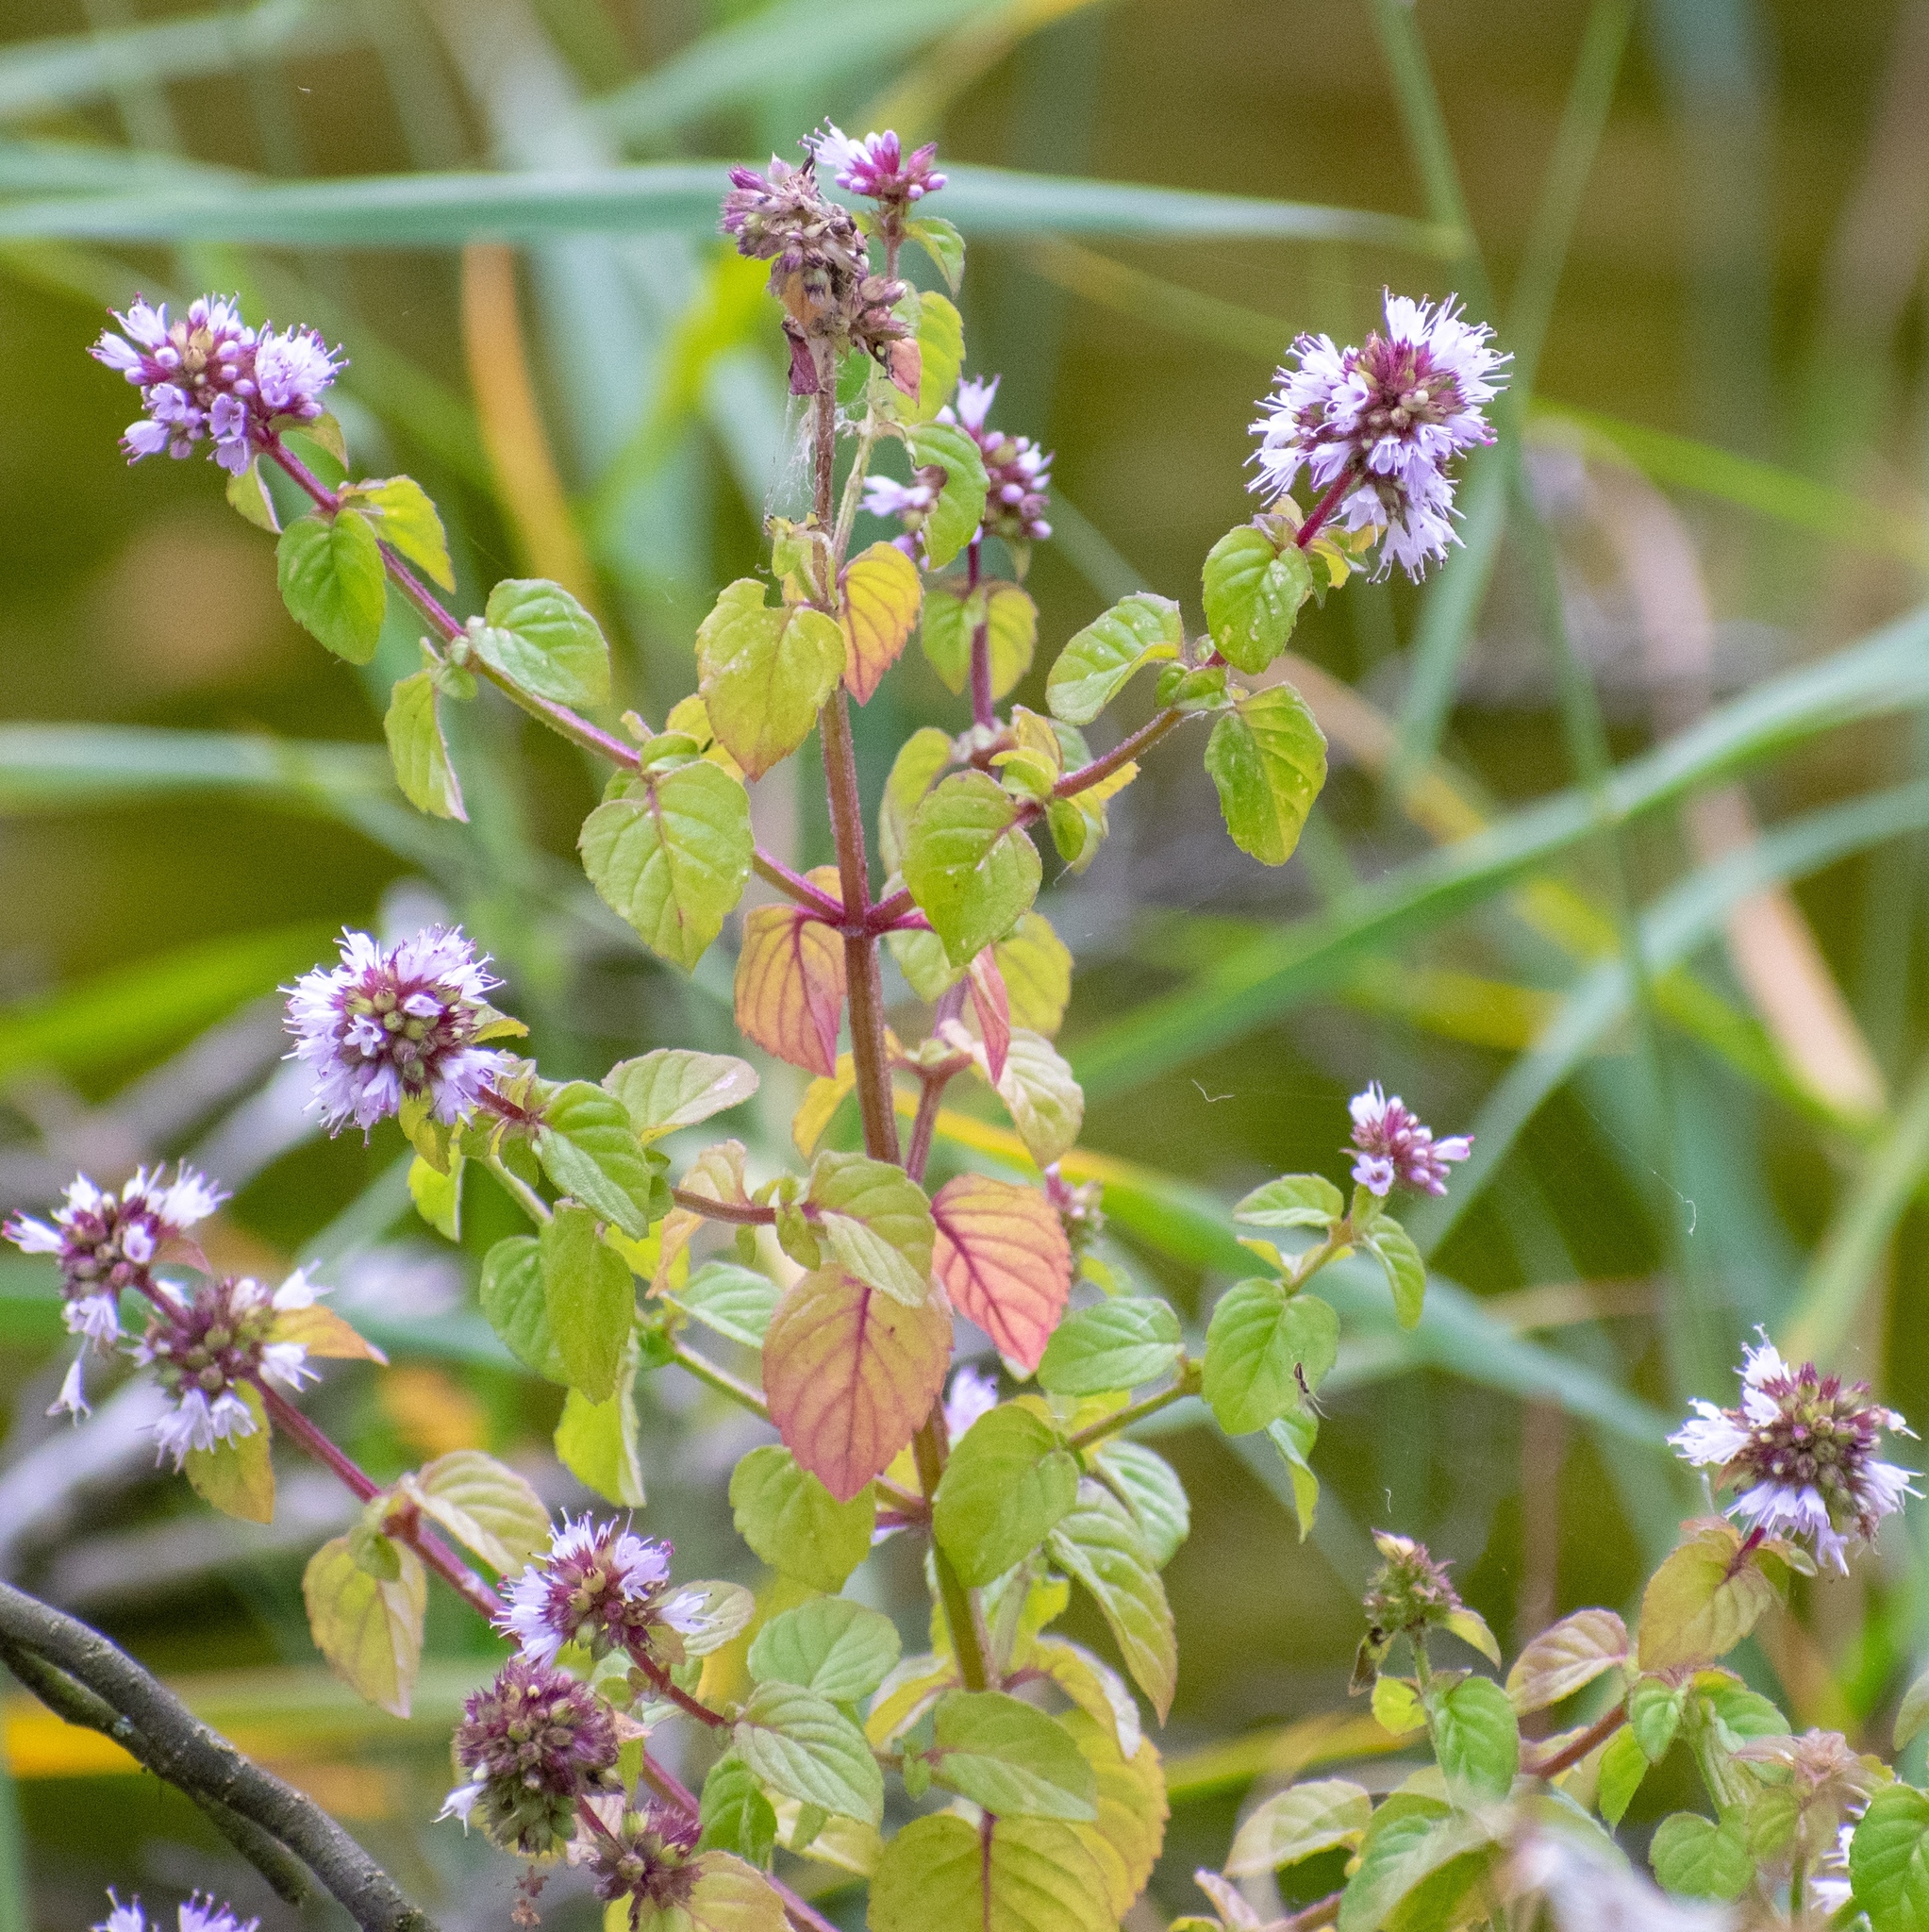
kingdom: Plantae
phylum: Tracheophyta
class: Magnoliopsida
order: Lamiales
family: Lamiaceae
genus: Mentha
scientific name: Mentha aquatica
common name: Water mint
